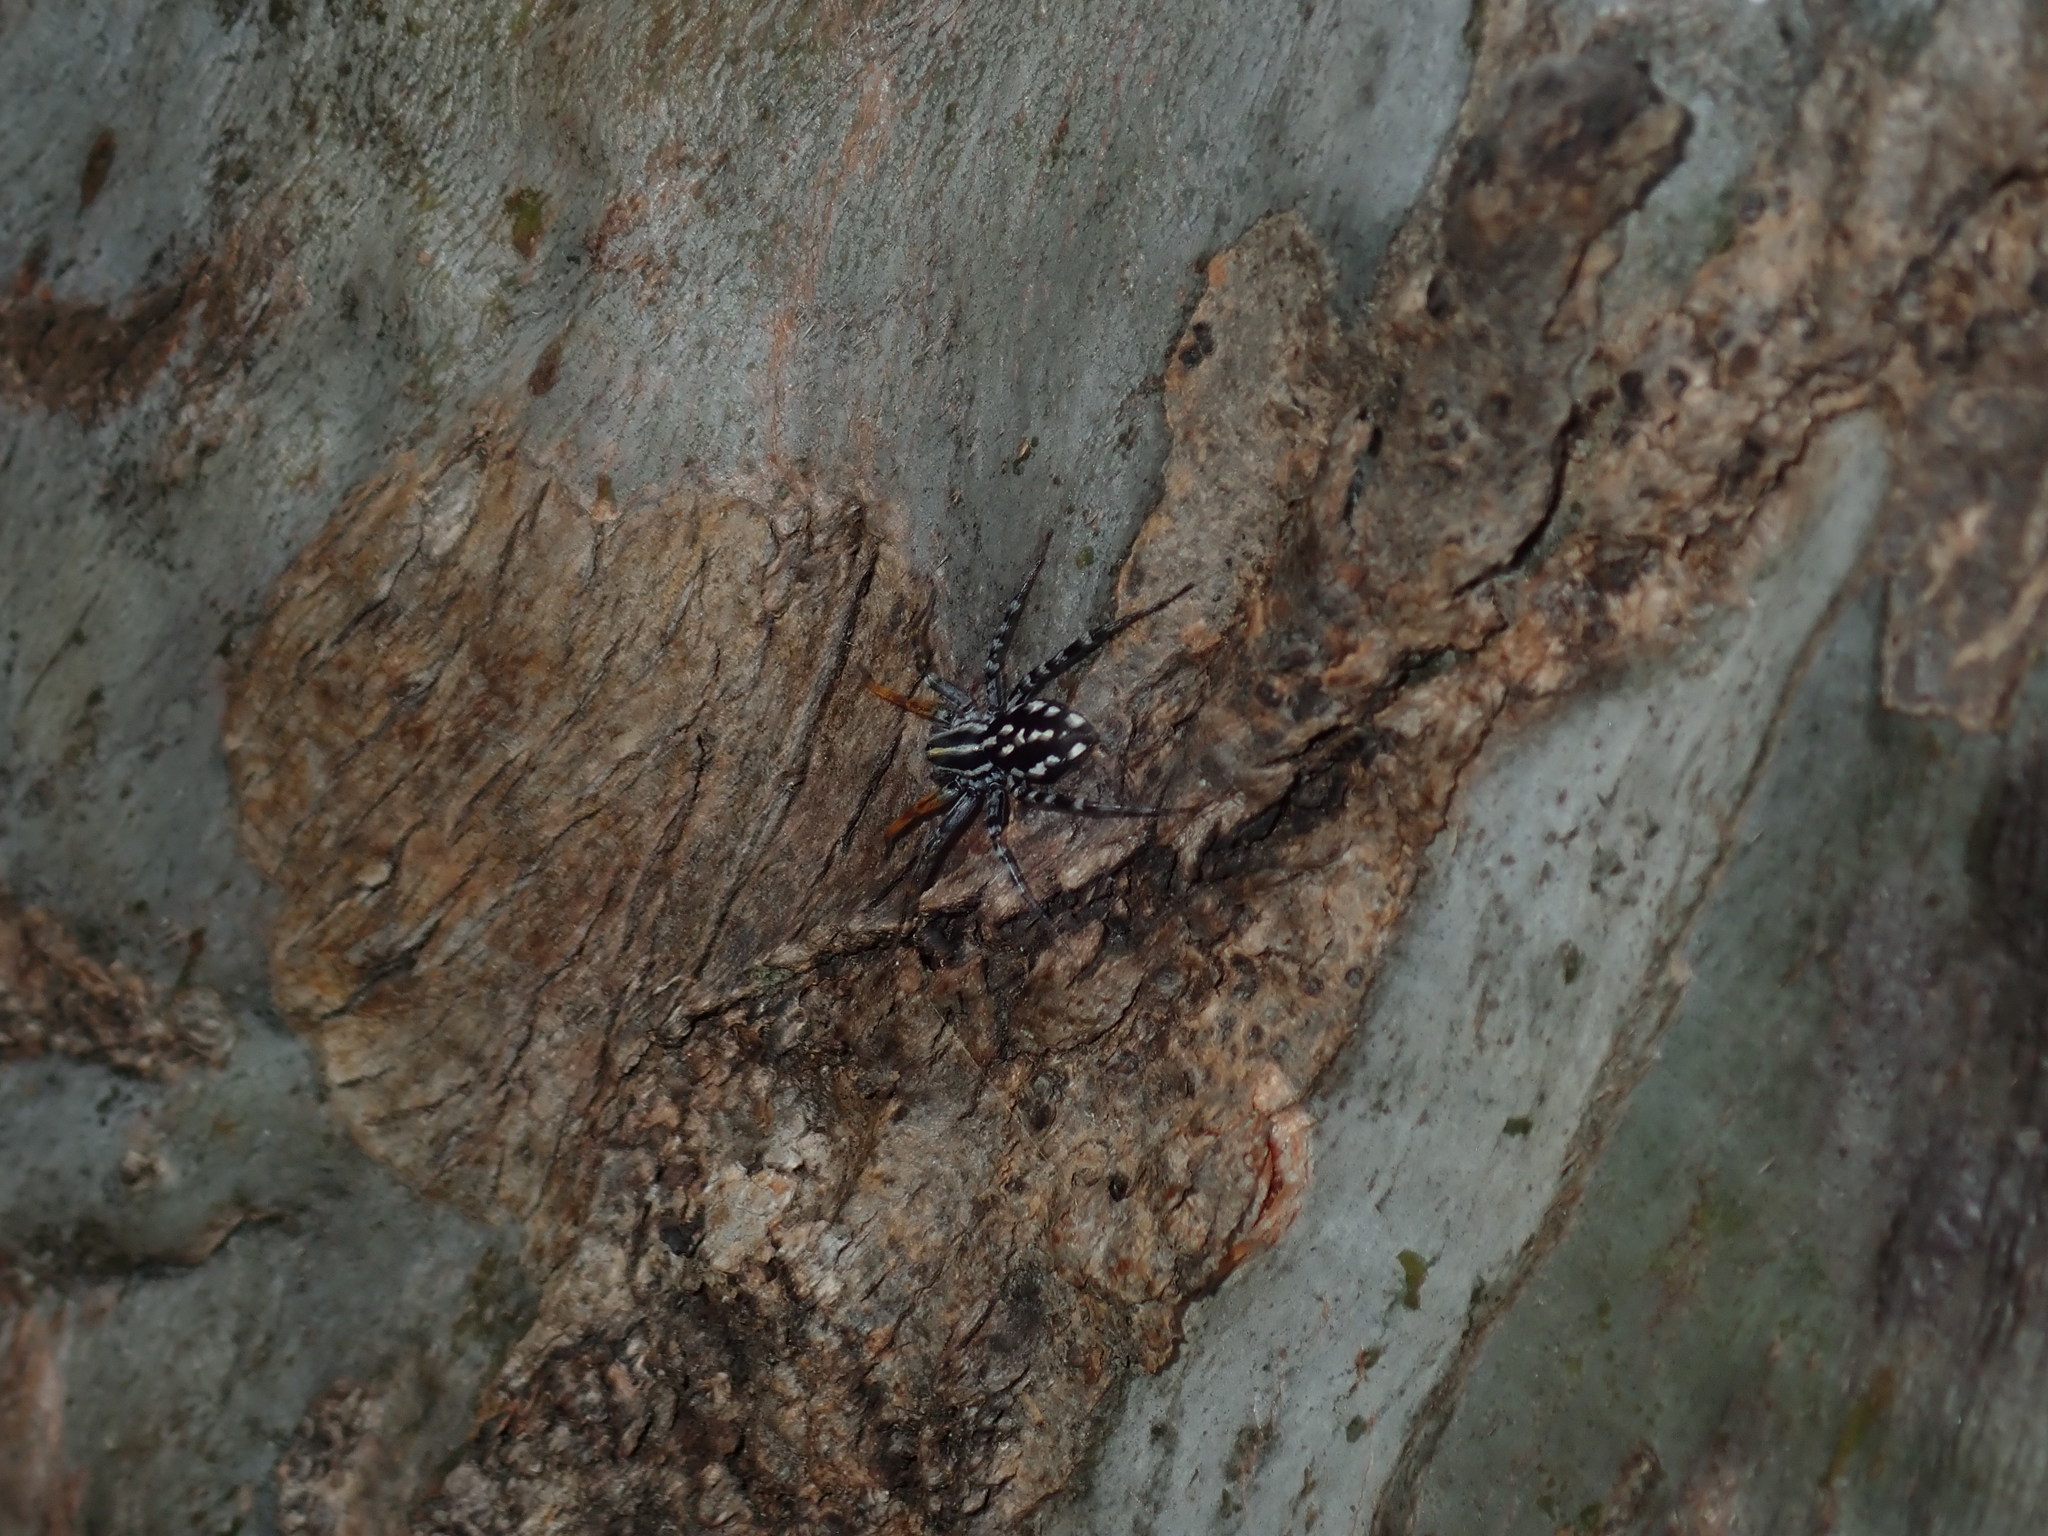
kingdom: Animalia
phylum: Arthropoda
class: Arachnida
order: Araneae
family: Corinnidae
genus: Nyssus
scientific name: Nyssus coloripes
